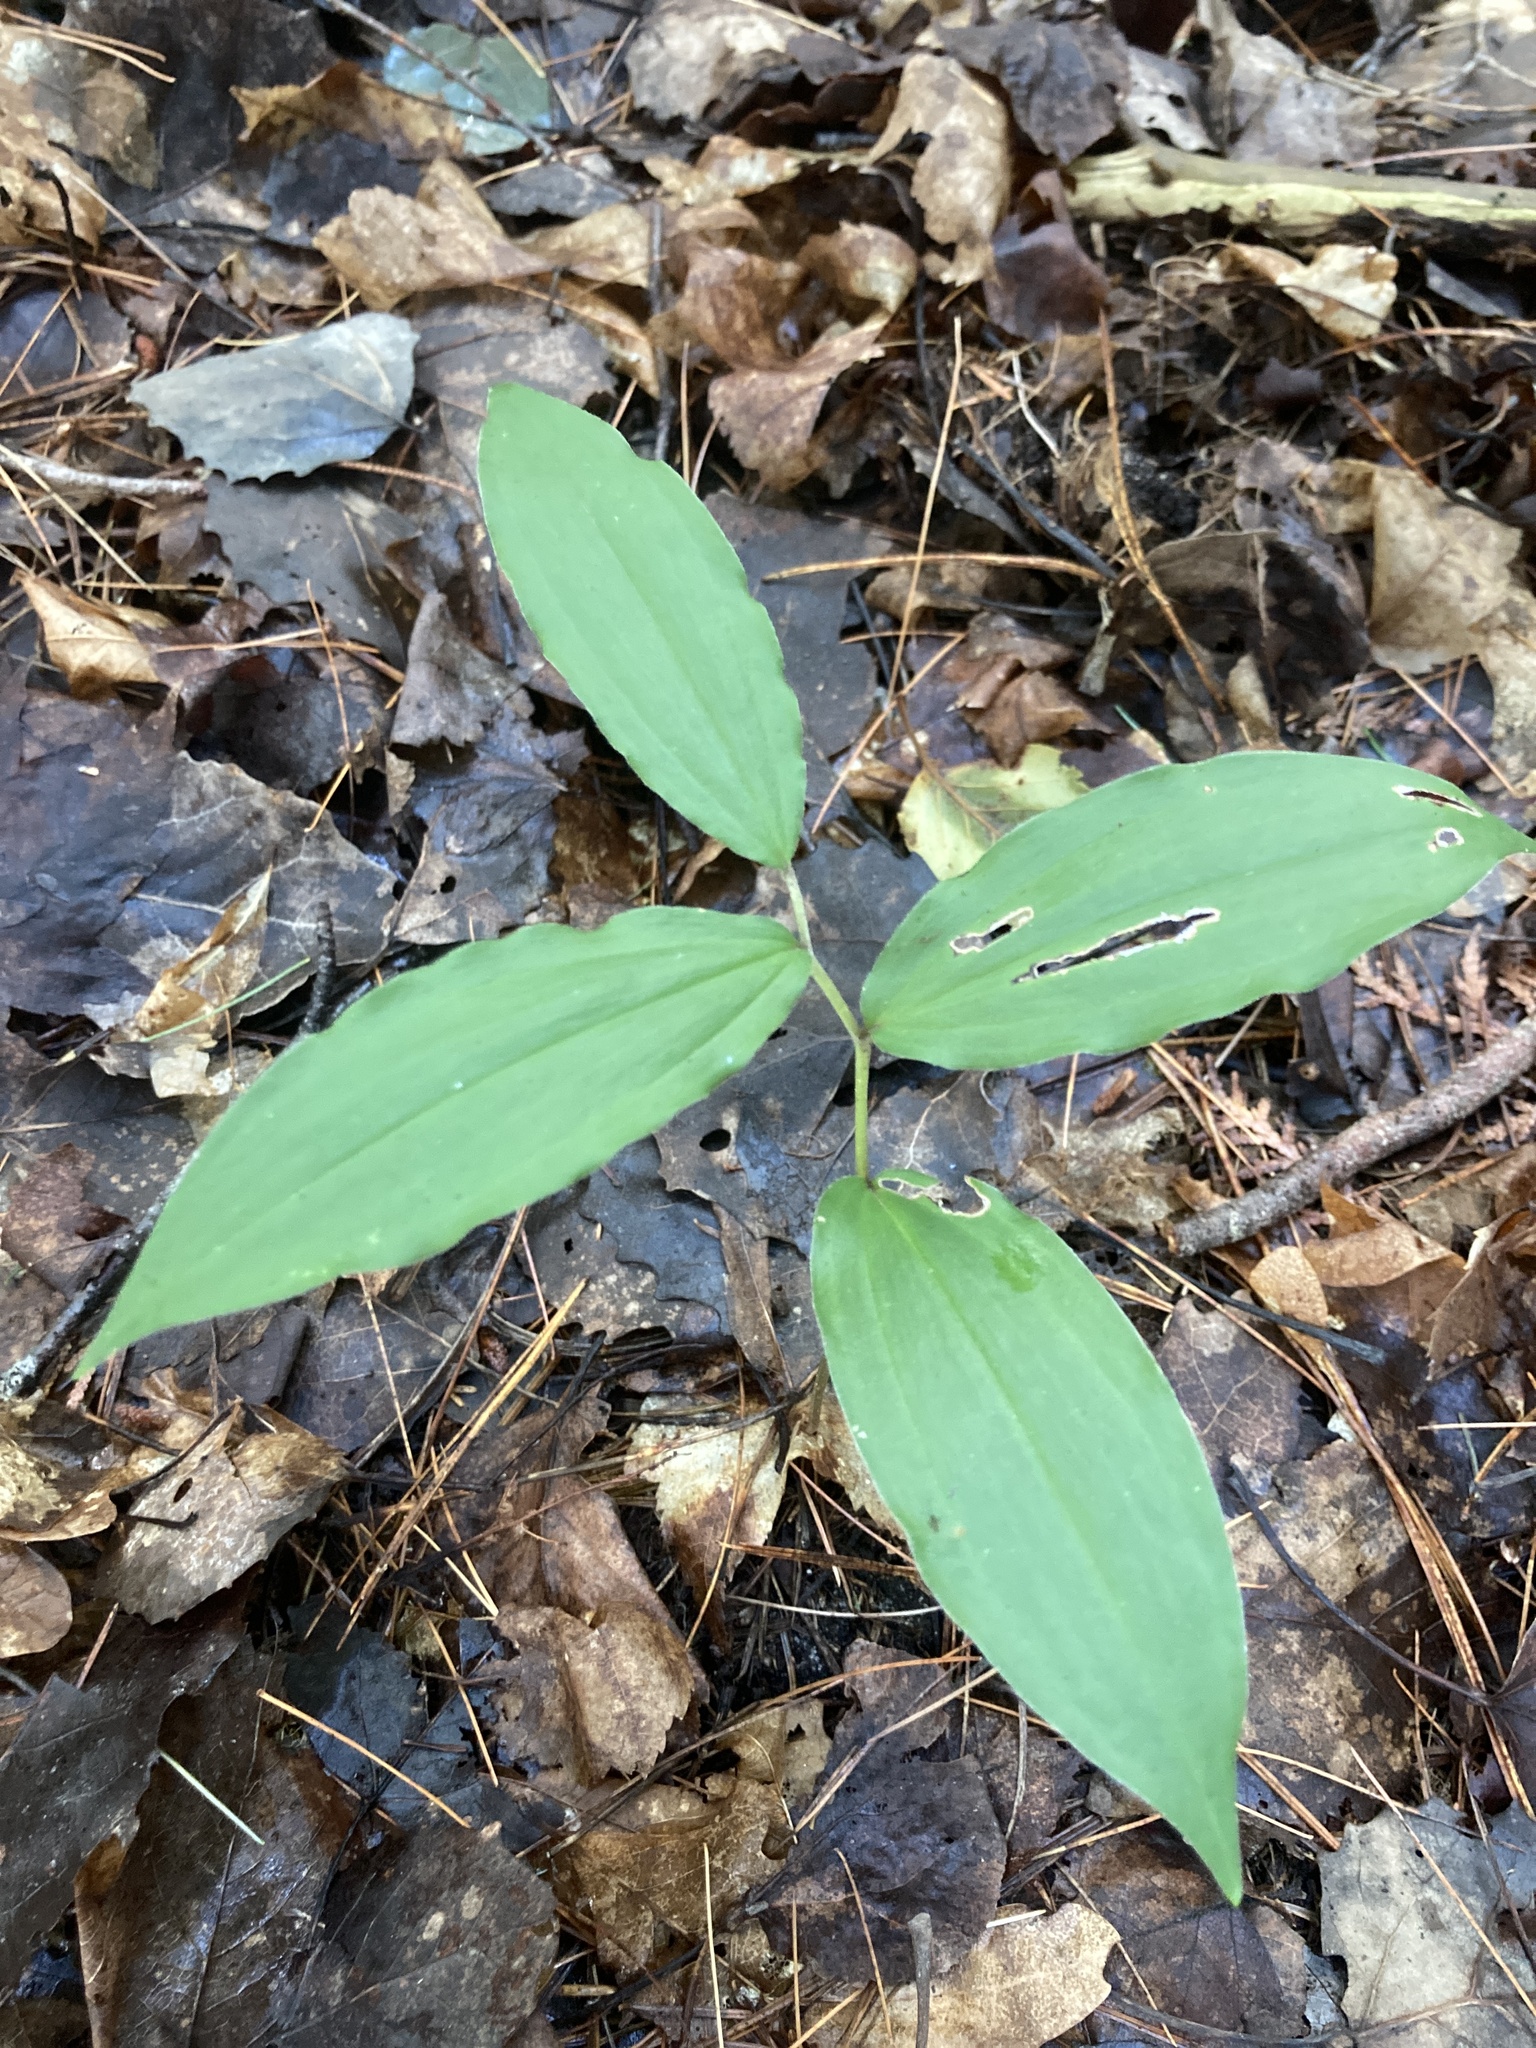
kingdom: Plantae
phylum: Tracheophyta
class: Liliopsida
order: Asparagales
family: Asparagaceae
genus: Maianthemum
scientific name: Maianthemum racemosum
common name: False spikenard
